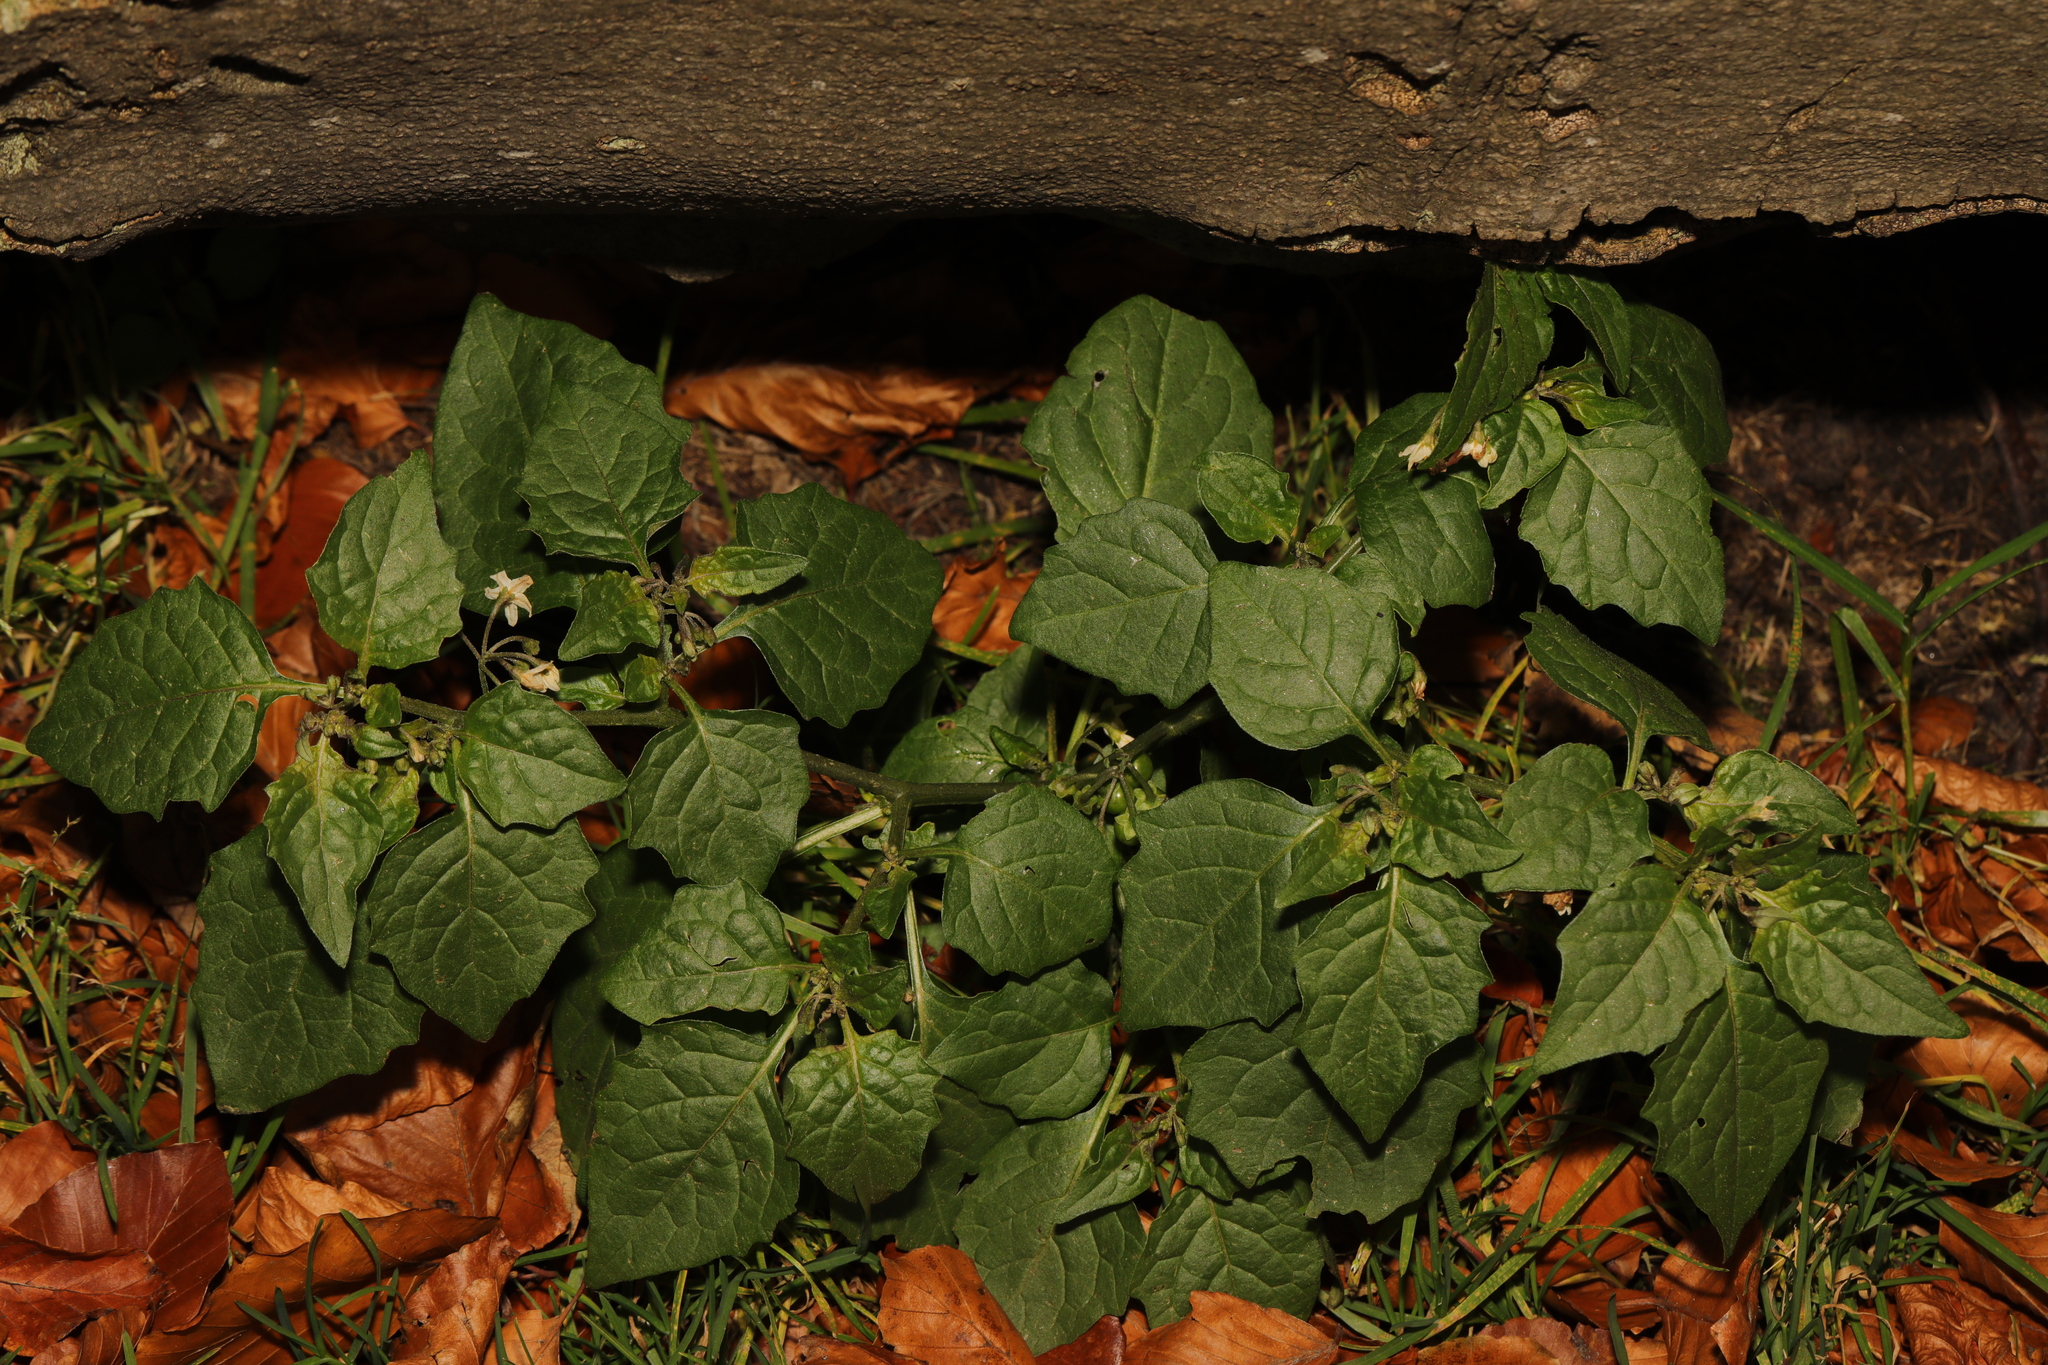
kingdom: Plantae
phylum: Tracheophyta
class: Magnoliopsida
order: Solanales
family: Solanaceae
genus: Solanum
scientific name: Solanum nigrum
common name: Black nightshade
